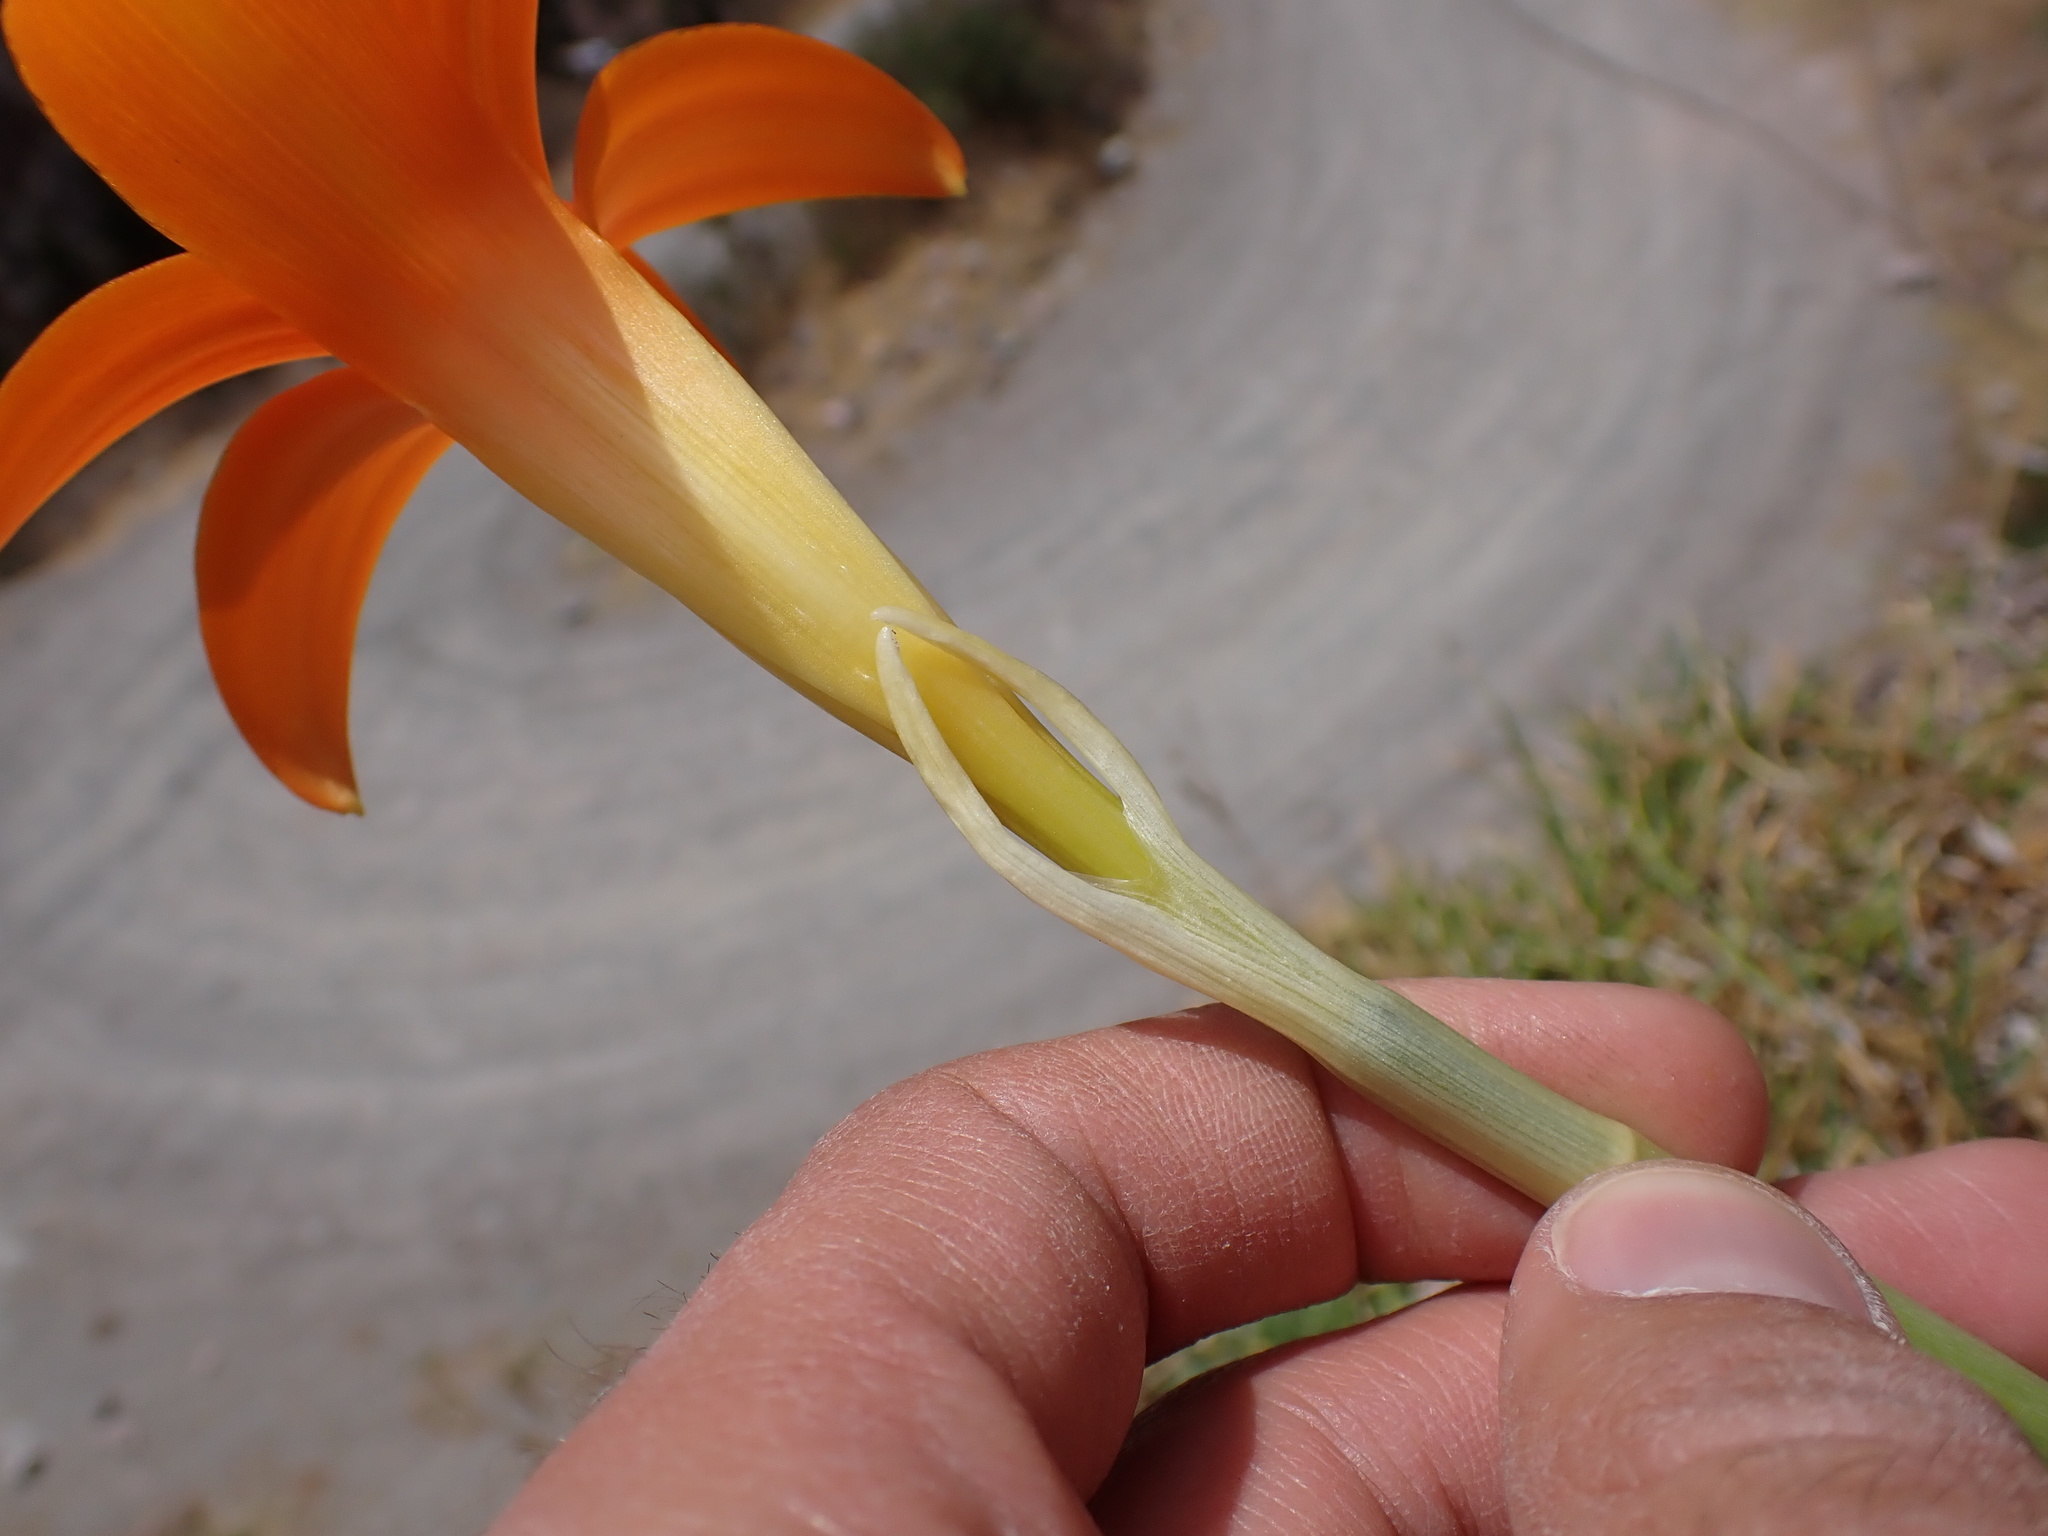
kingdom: Plantae
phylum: Tracheophyta
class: Liliopsida
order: Asparagales
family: Amaryllidaceae
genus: Pyrolirion
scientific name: Pyrolirion tubiflorum
